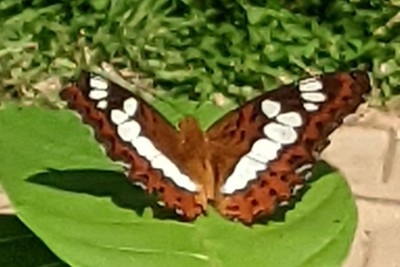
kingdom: Animalia
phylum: Arthropoda
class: Insecta
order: Lepidoptera
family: Nymphalidae
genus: Limenitis
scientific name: Limenitis Moduza procris
